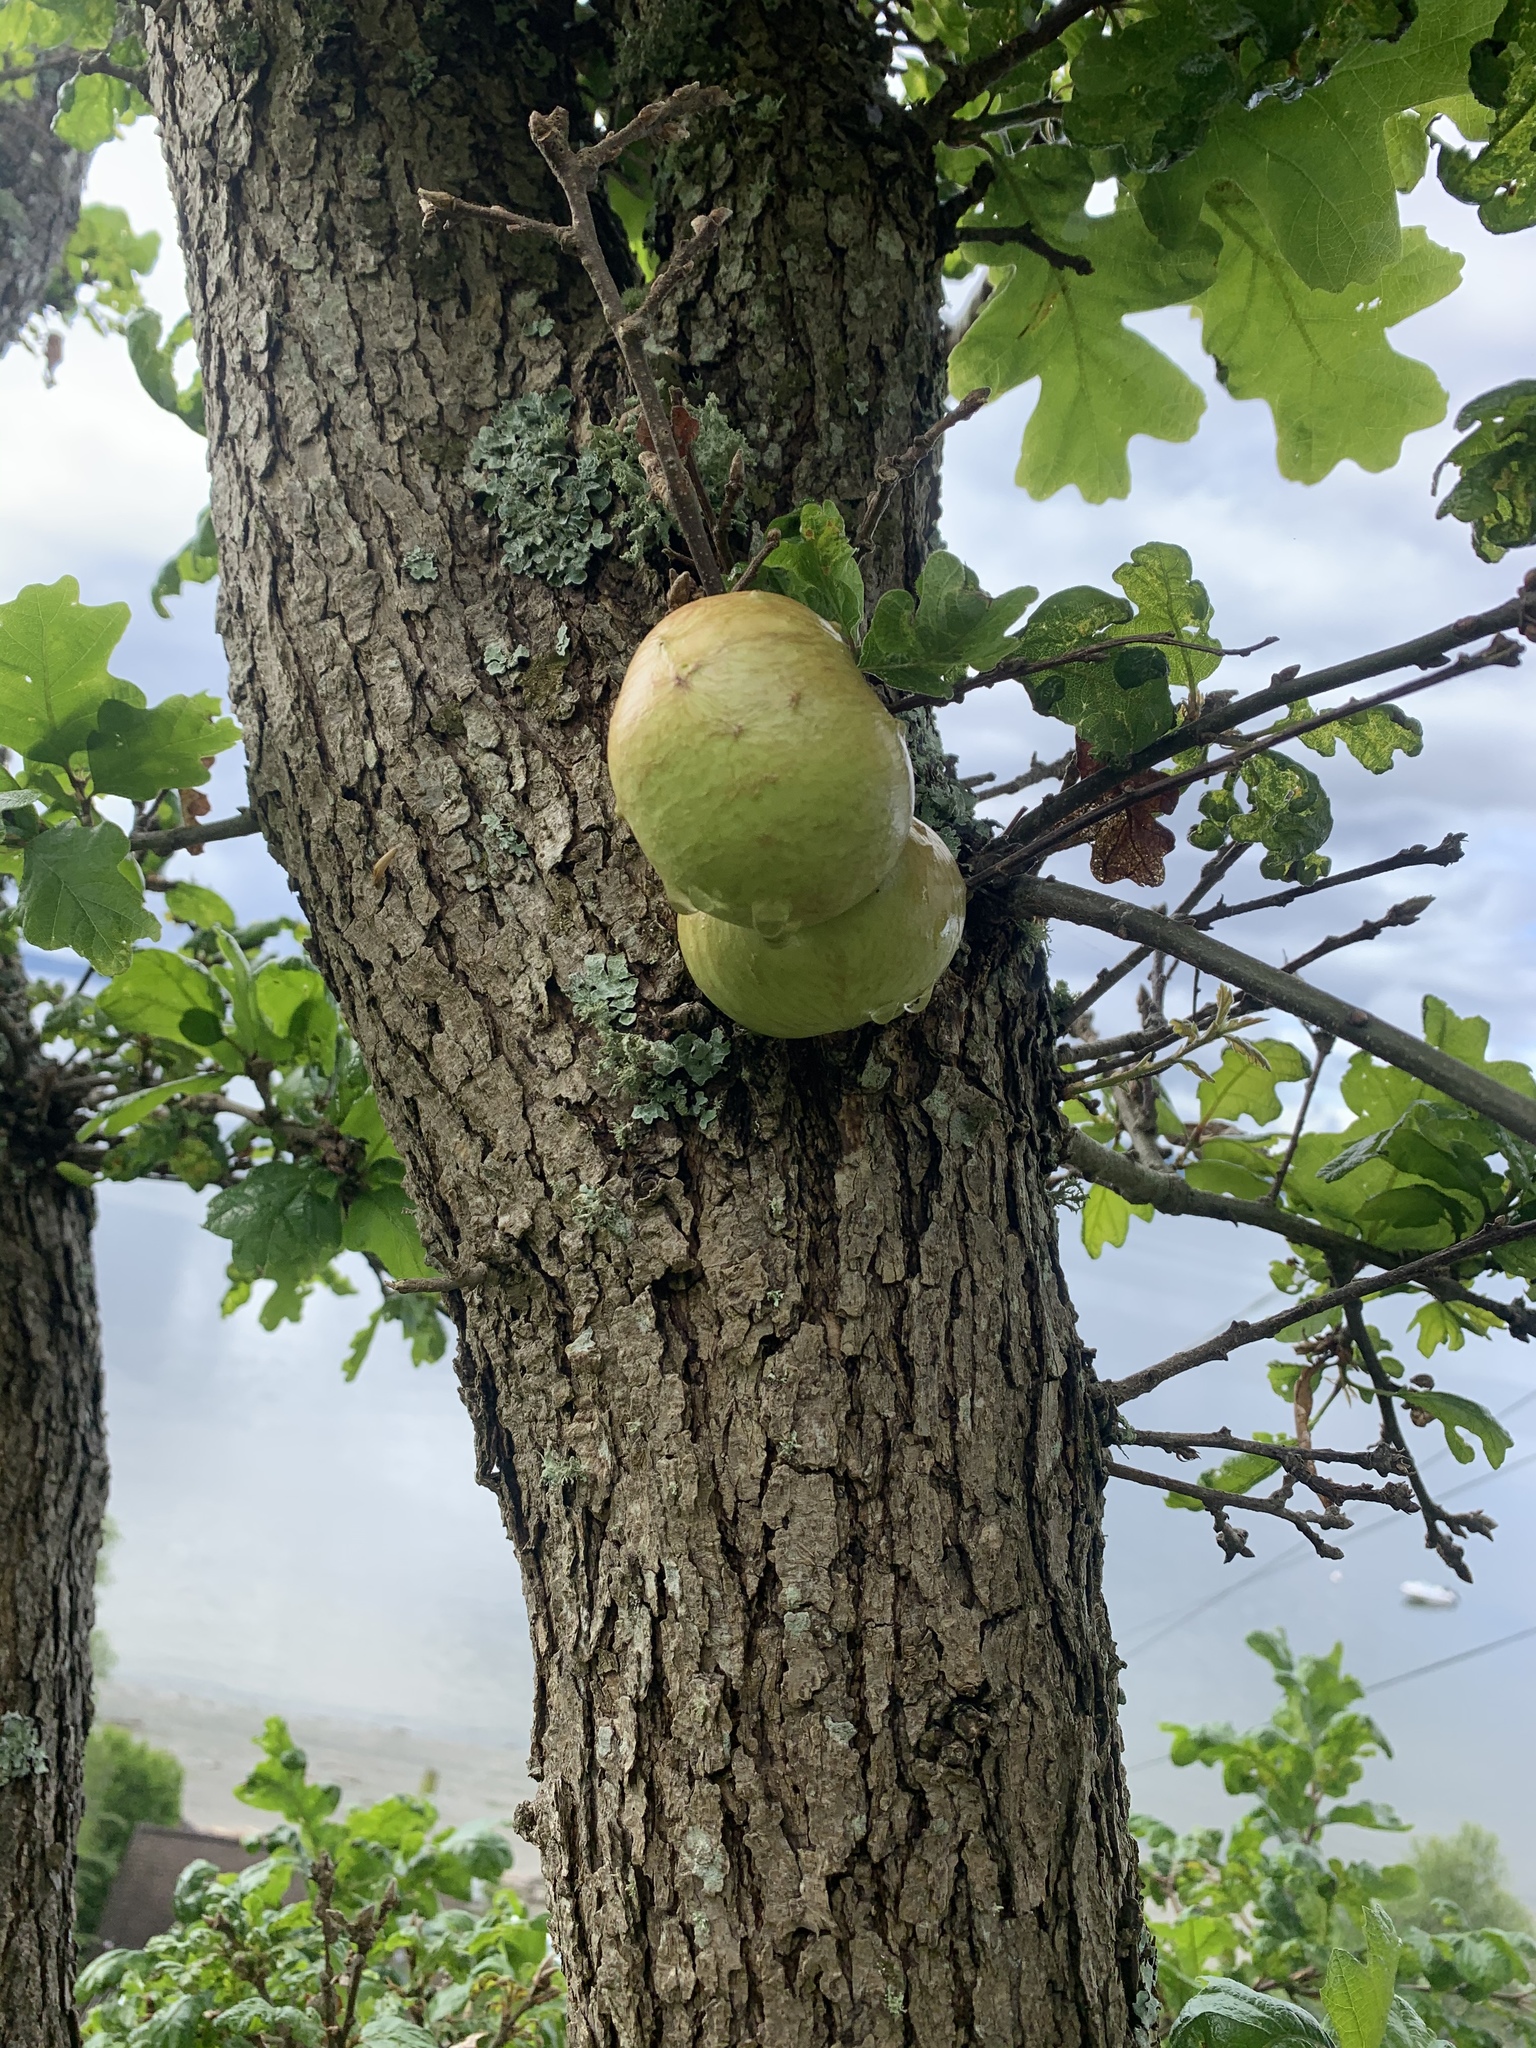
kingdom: Animalia
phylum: Arthropoda
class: Insecta
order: Hymenoptera
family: Cynipidae
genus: Andricus
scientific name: Andricus quercuscalifornicus
